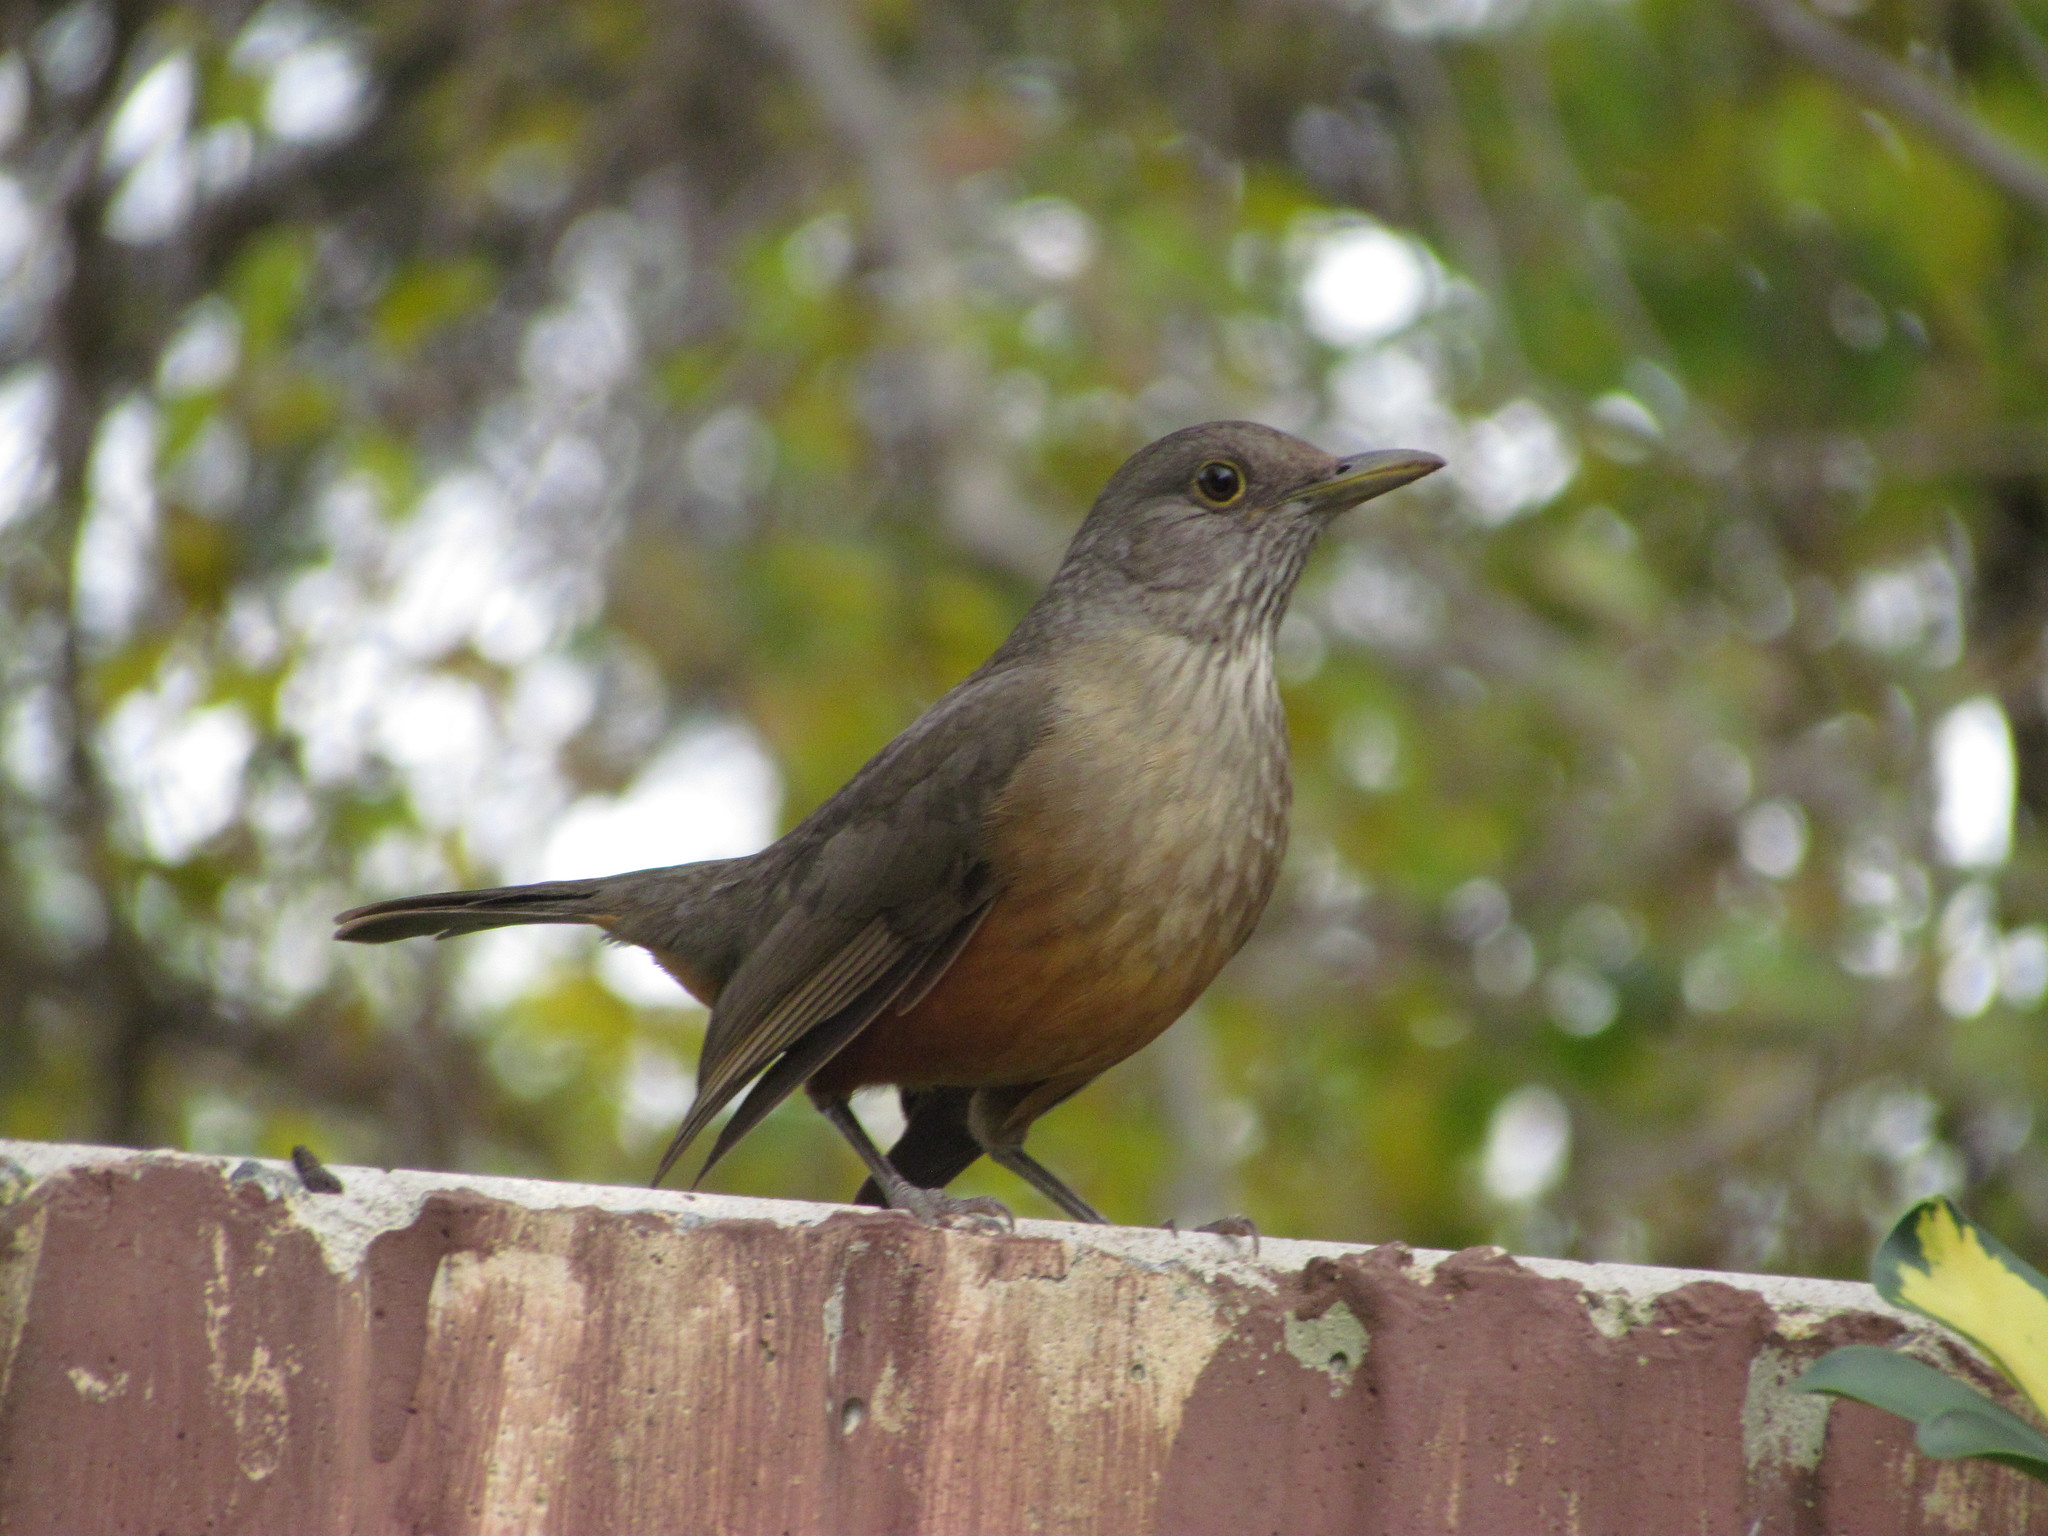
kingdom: Animalia
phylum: Chordata
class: Aves
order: Passeriformes
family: Turdidae
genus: Turdus
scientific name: Turdus rufiventris
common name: Rufous-bellied thrush
